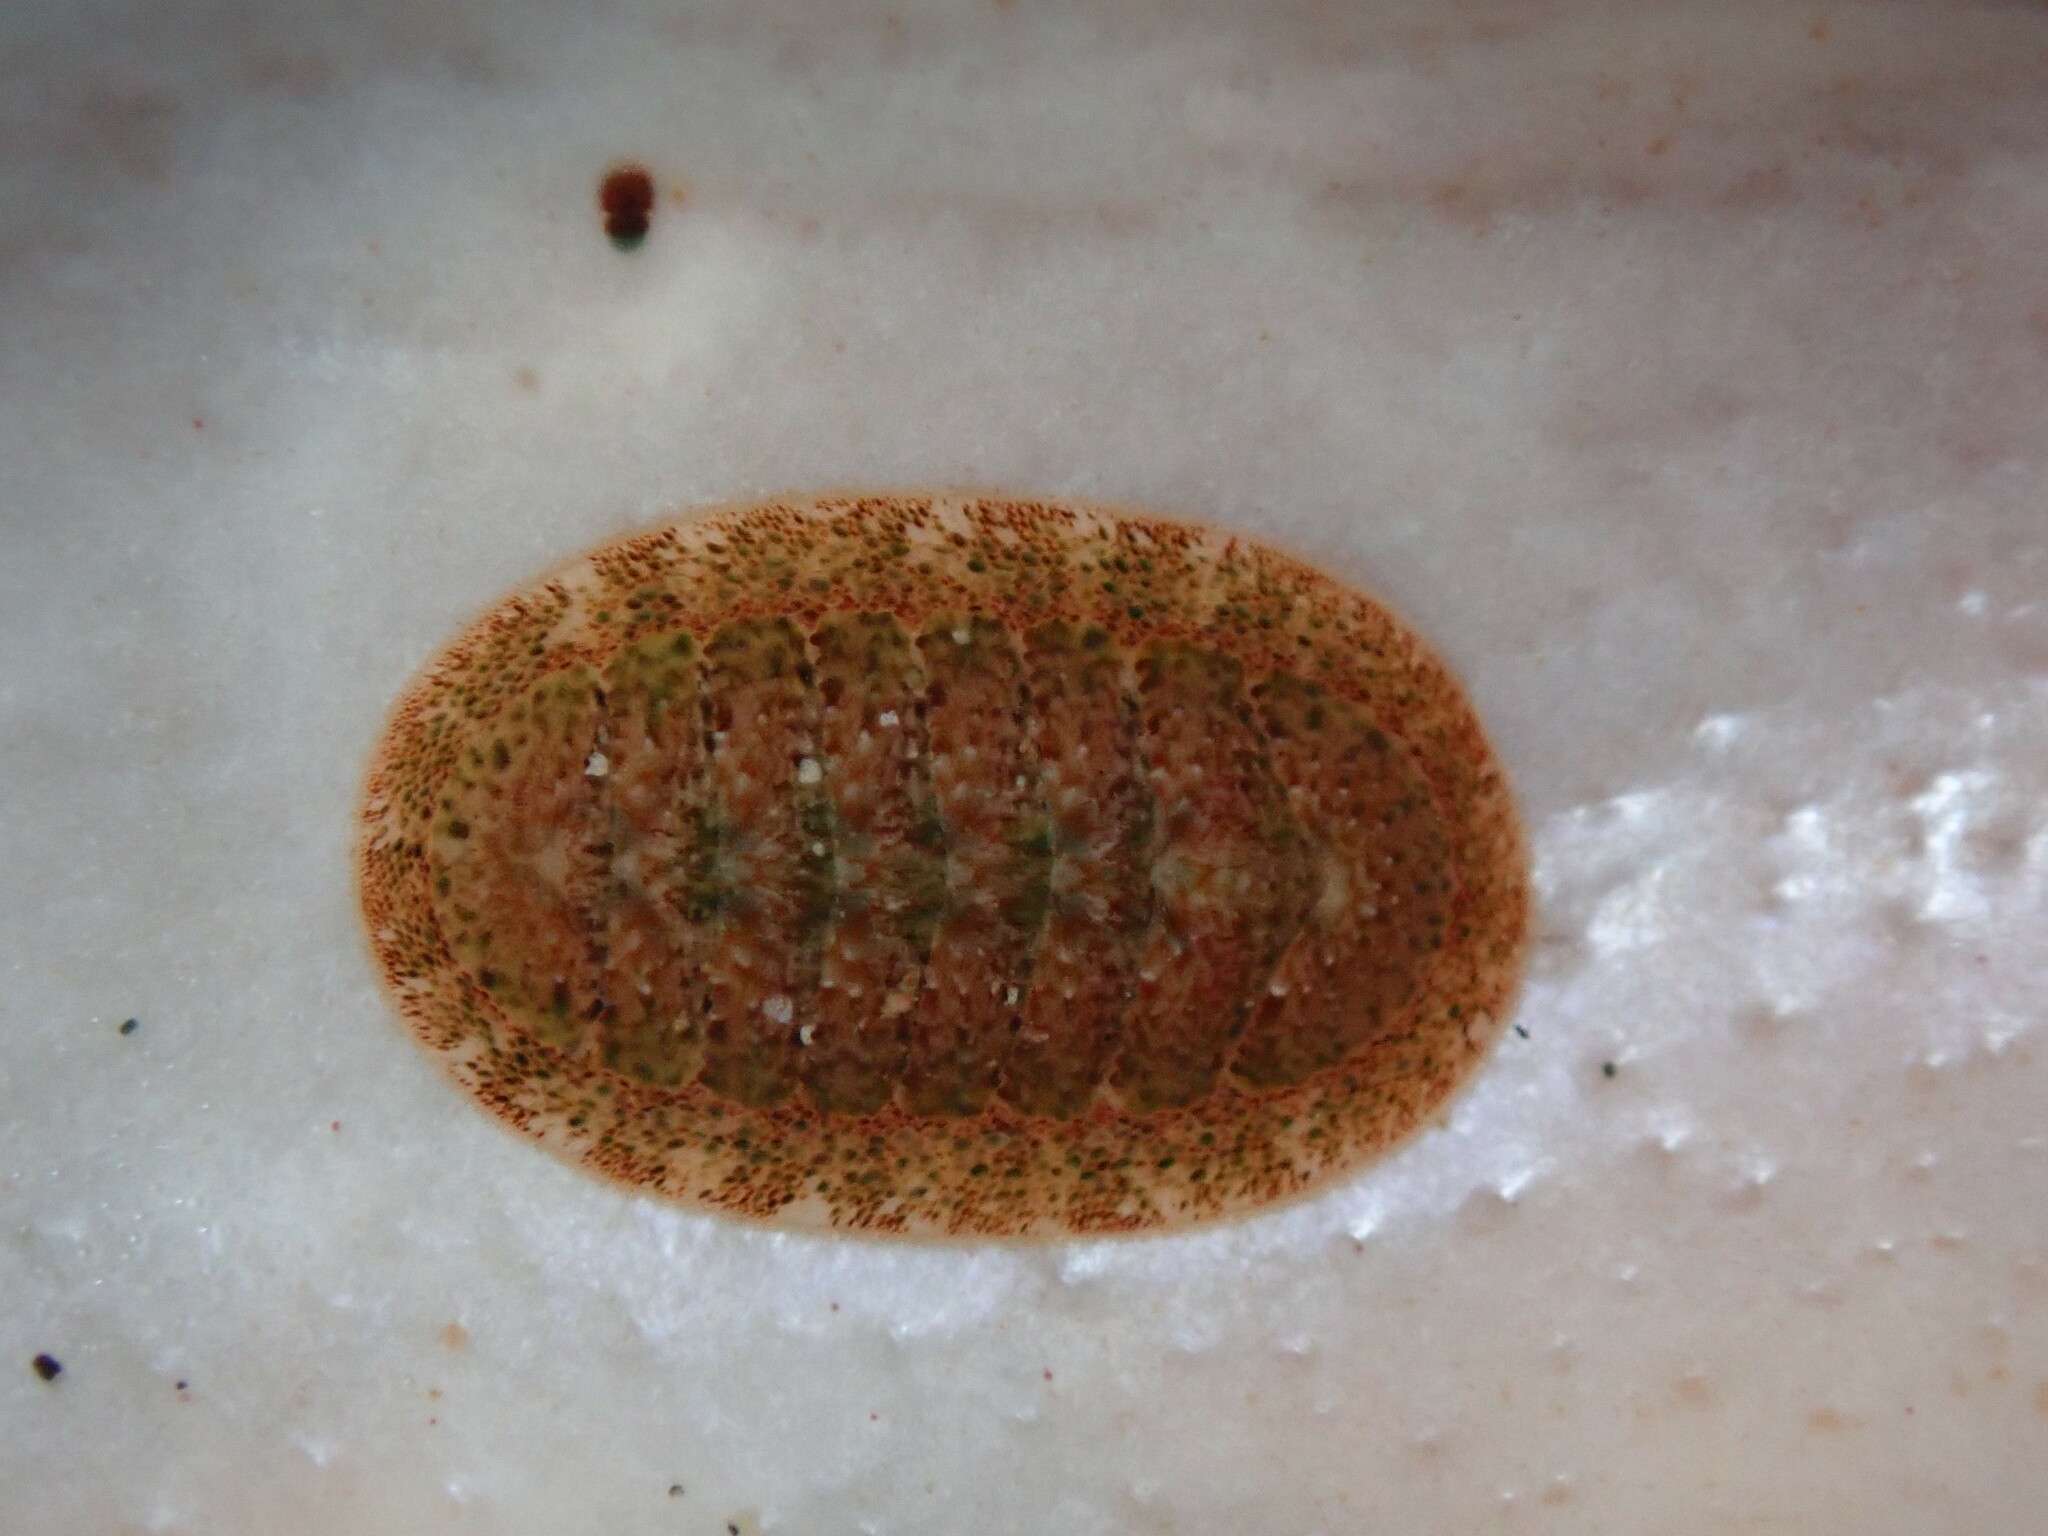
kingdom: Animalia
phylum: Mollusca
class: Polyplacophora
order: Chitonida
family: Ischnochitonidae
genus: Lepidozona
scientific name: Lepidozona pectinulata
